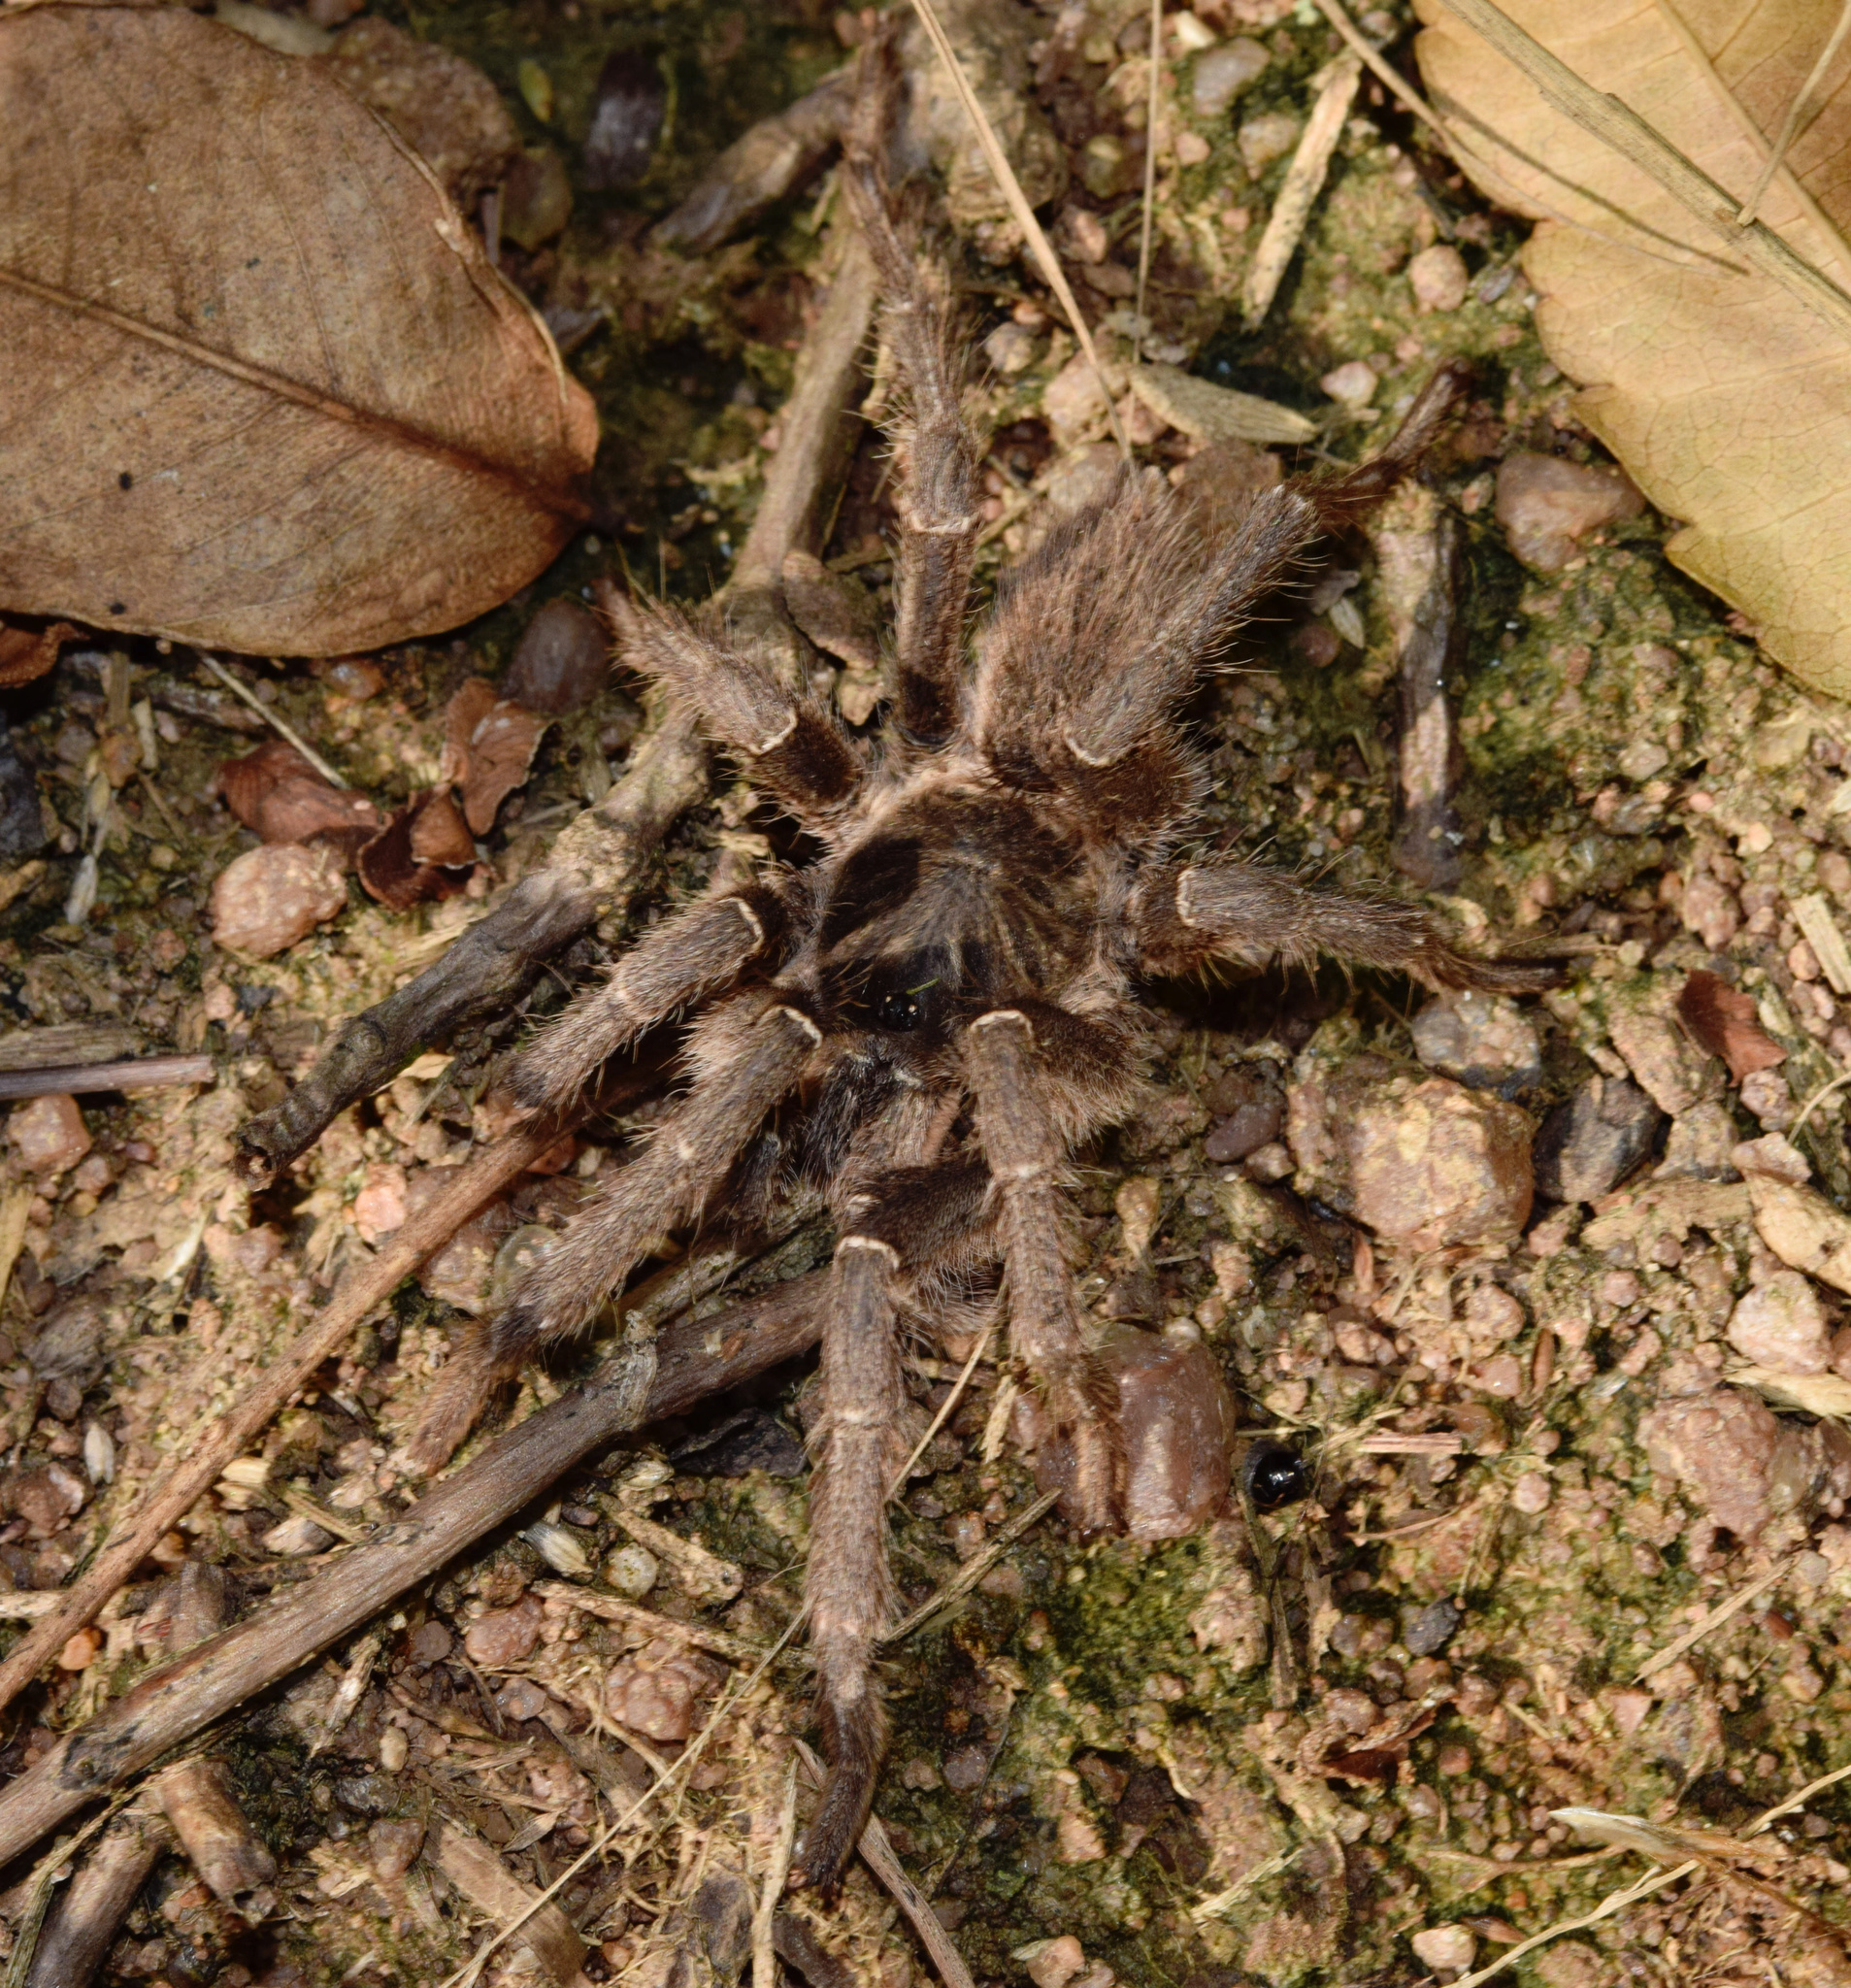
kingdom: Animalia
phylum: Arthropoda
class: Arachnida
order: Araneae
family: Theraphosidae
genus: Harpactira
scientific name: Harpactira curator
